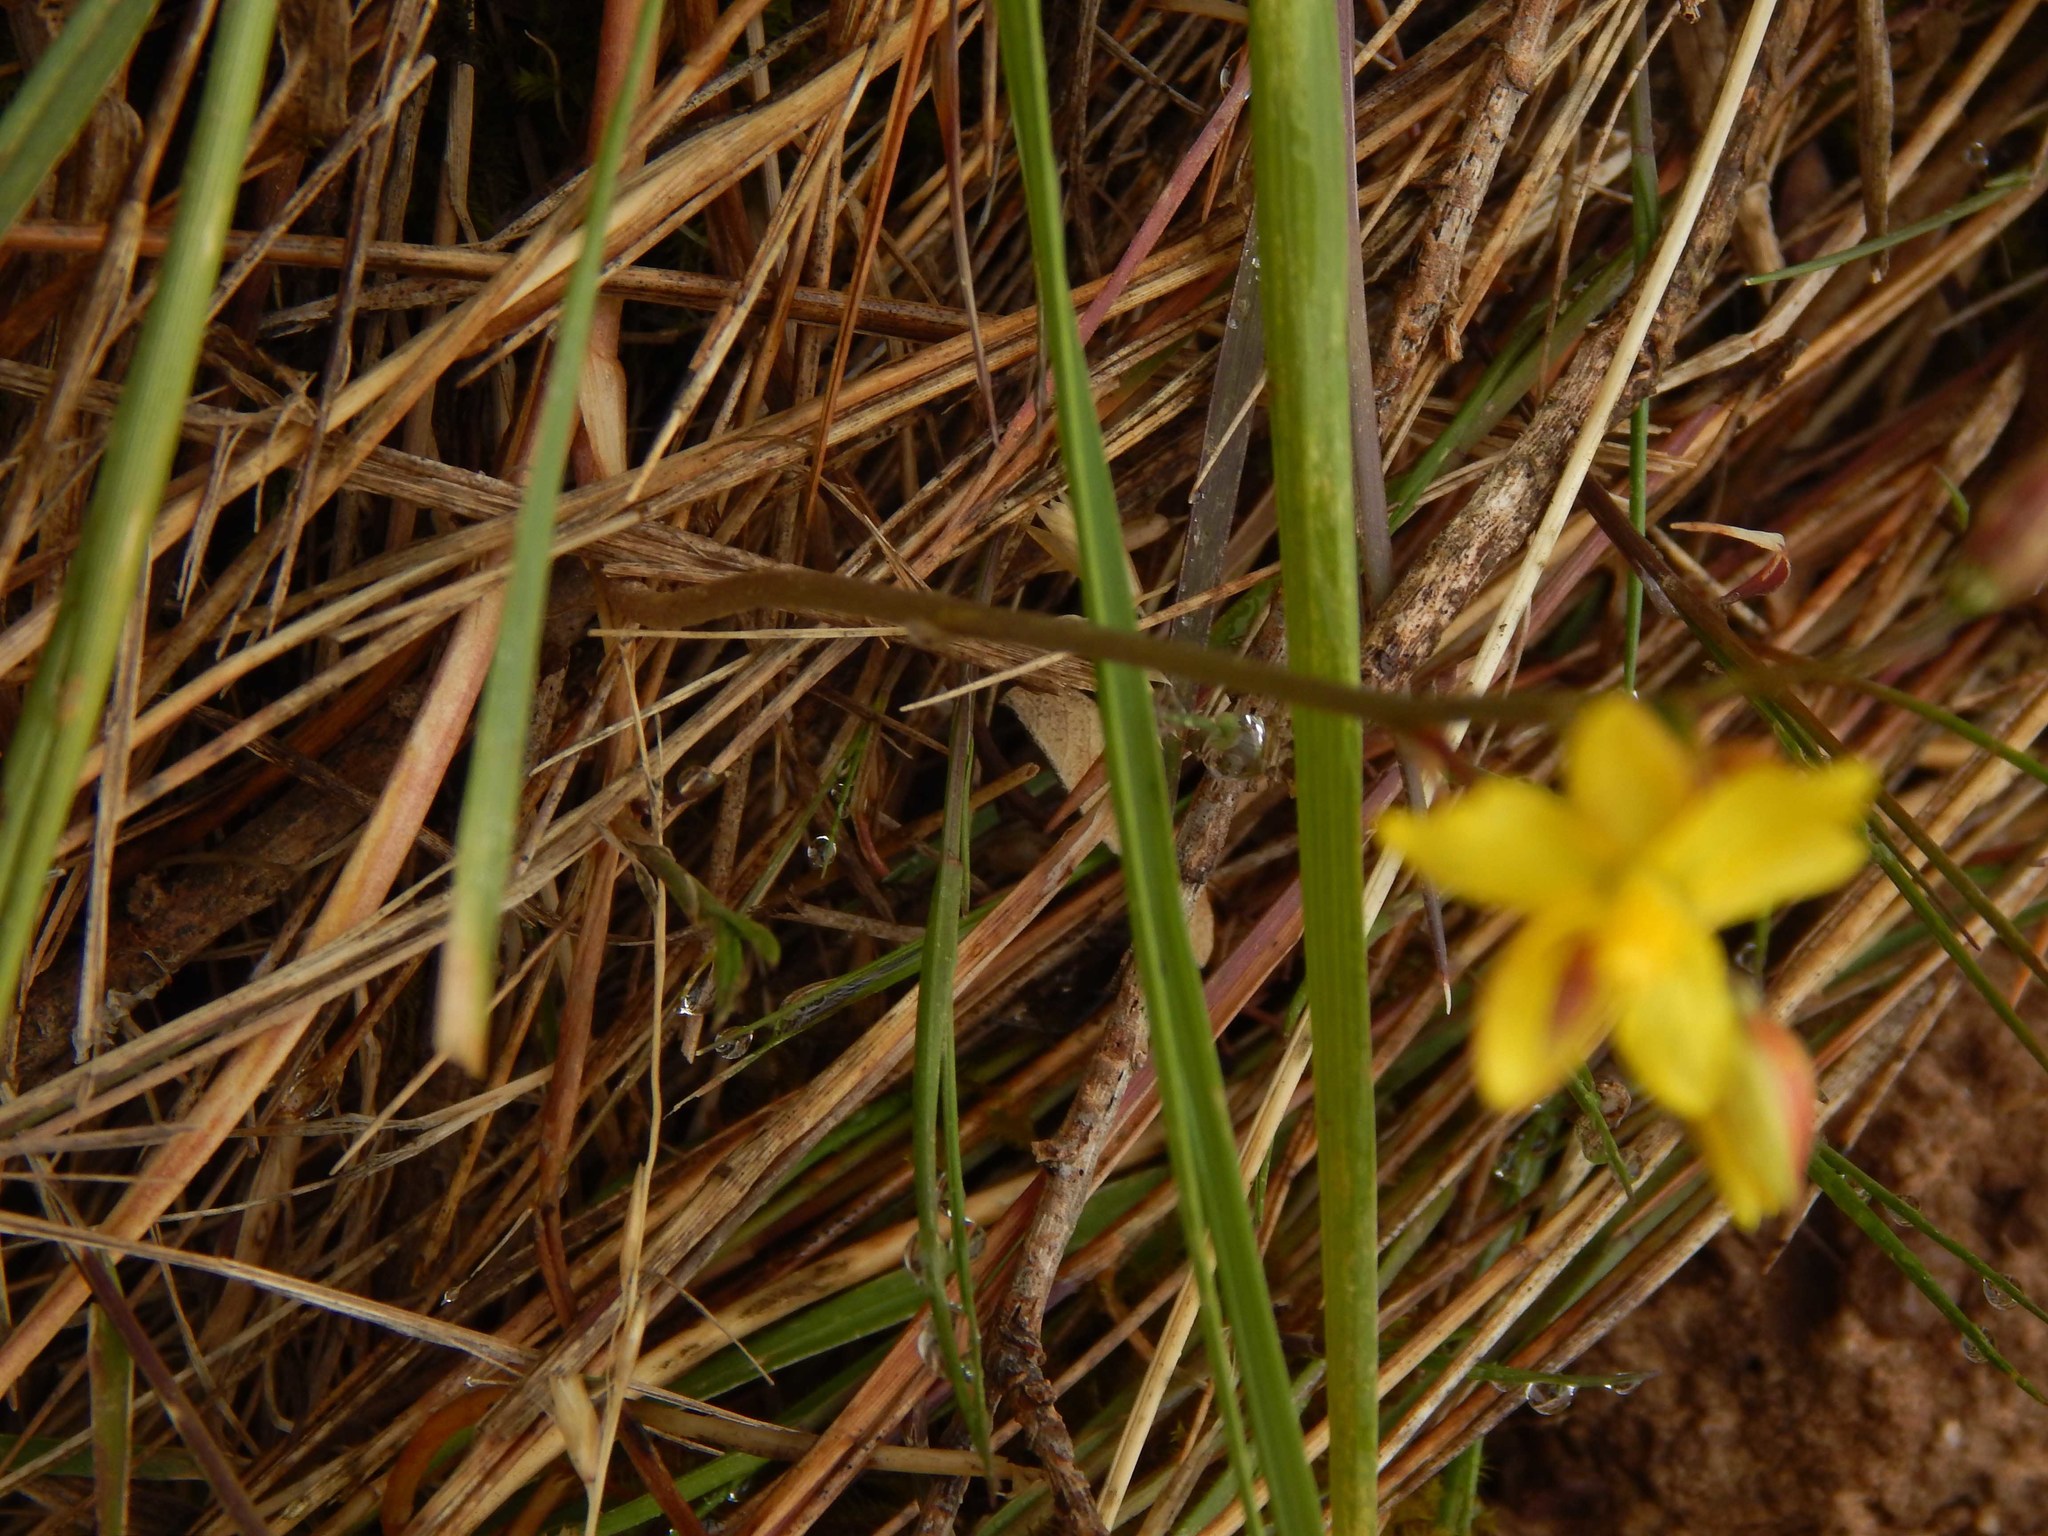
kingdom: Plantae
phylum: Tracheophyta
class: Liliopsida
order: Asparagales
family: Tecophilaeaceae
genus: Cyanella
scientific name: Cyanella lutea
